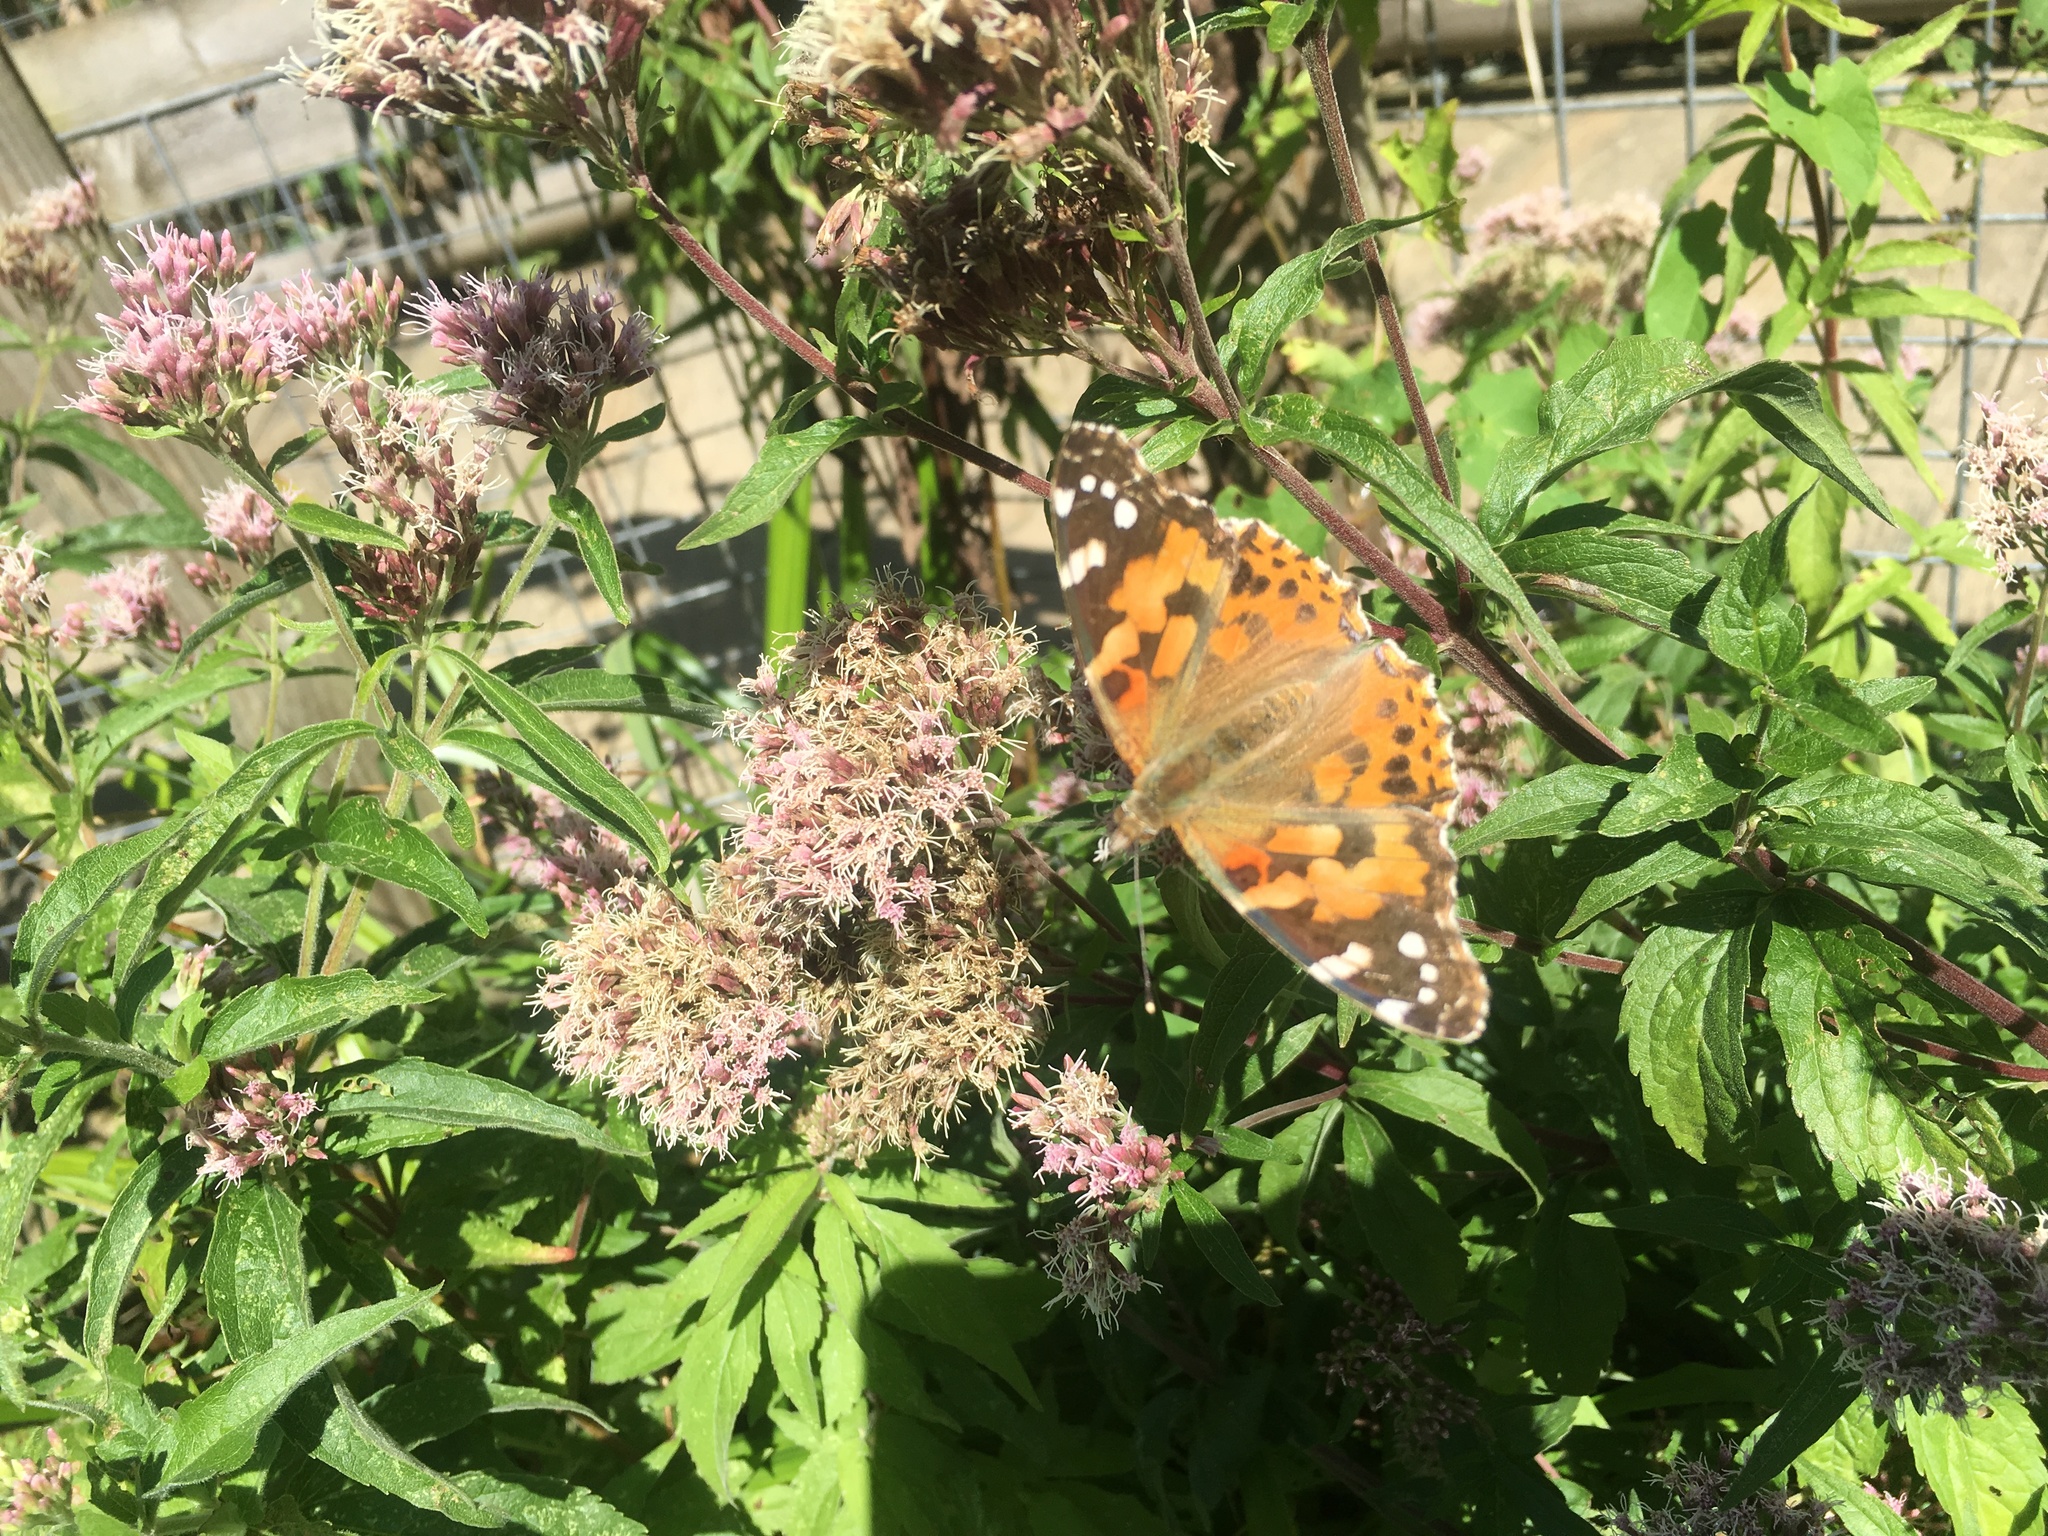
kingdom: Animalia
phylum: Arthropoda
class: Insecta
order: Lepidoptera
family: Nymphalidae
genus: Vanessa
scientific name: Vanessa cardui
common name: Painted lady
